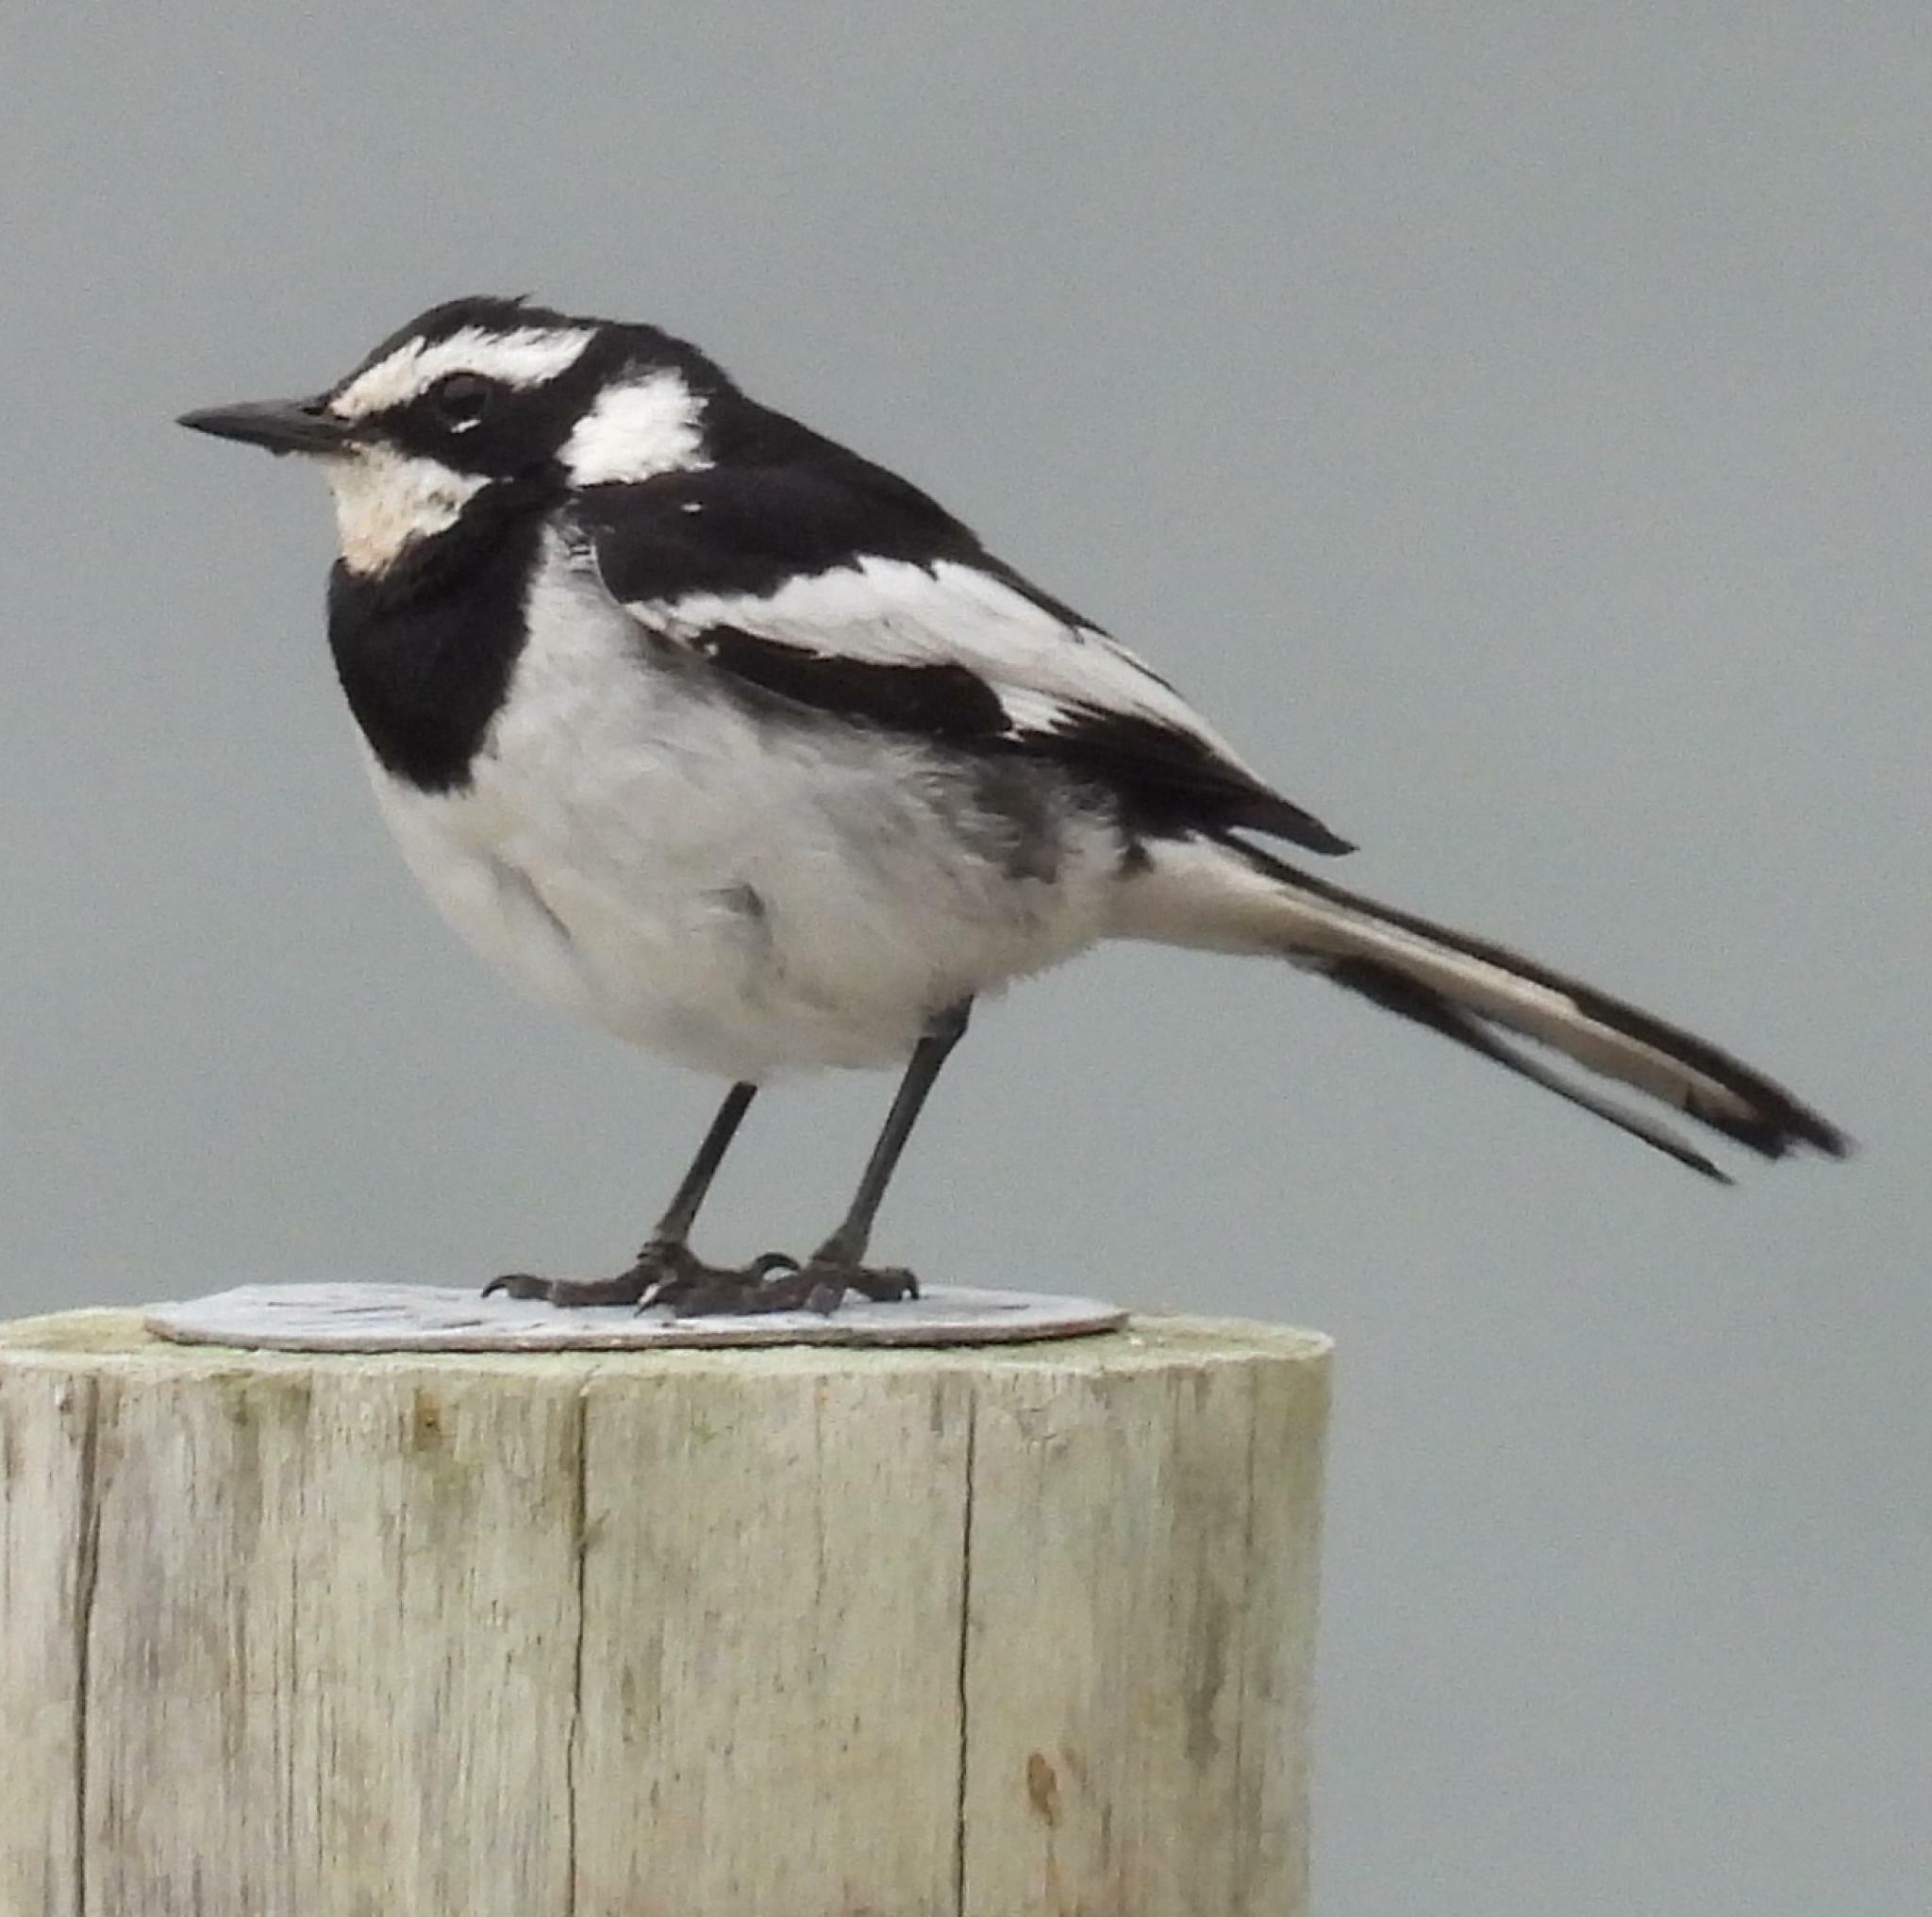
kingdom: Animalia
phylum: Chordata
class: Aves
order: Passeriformes
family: Motacillidae
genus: Motacilla
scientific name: Motacilla aguimp
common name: African pied wagtail
